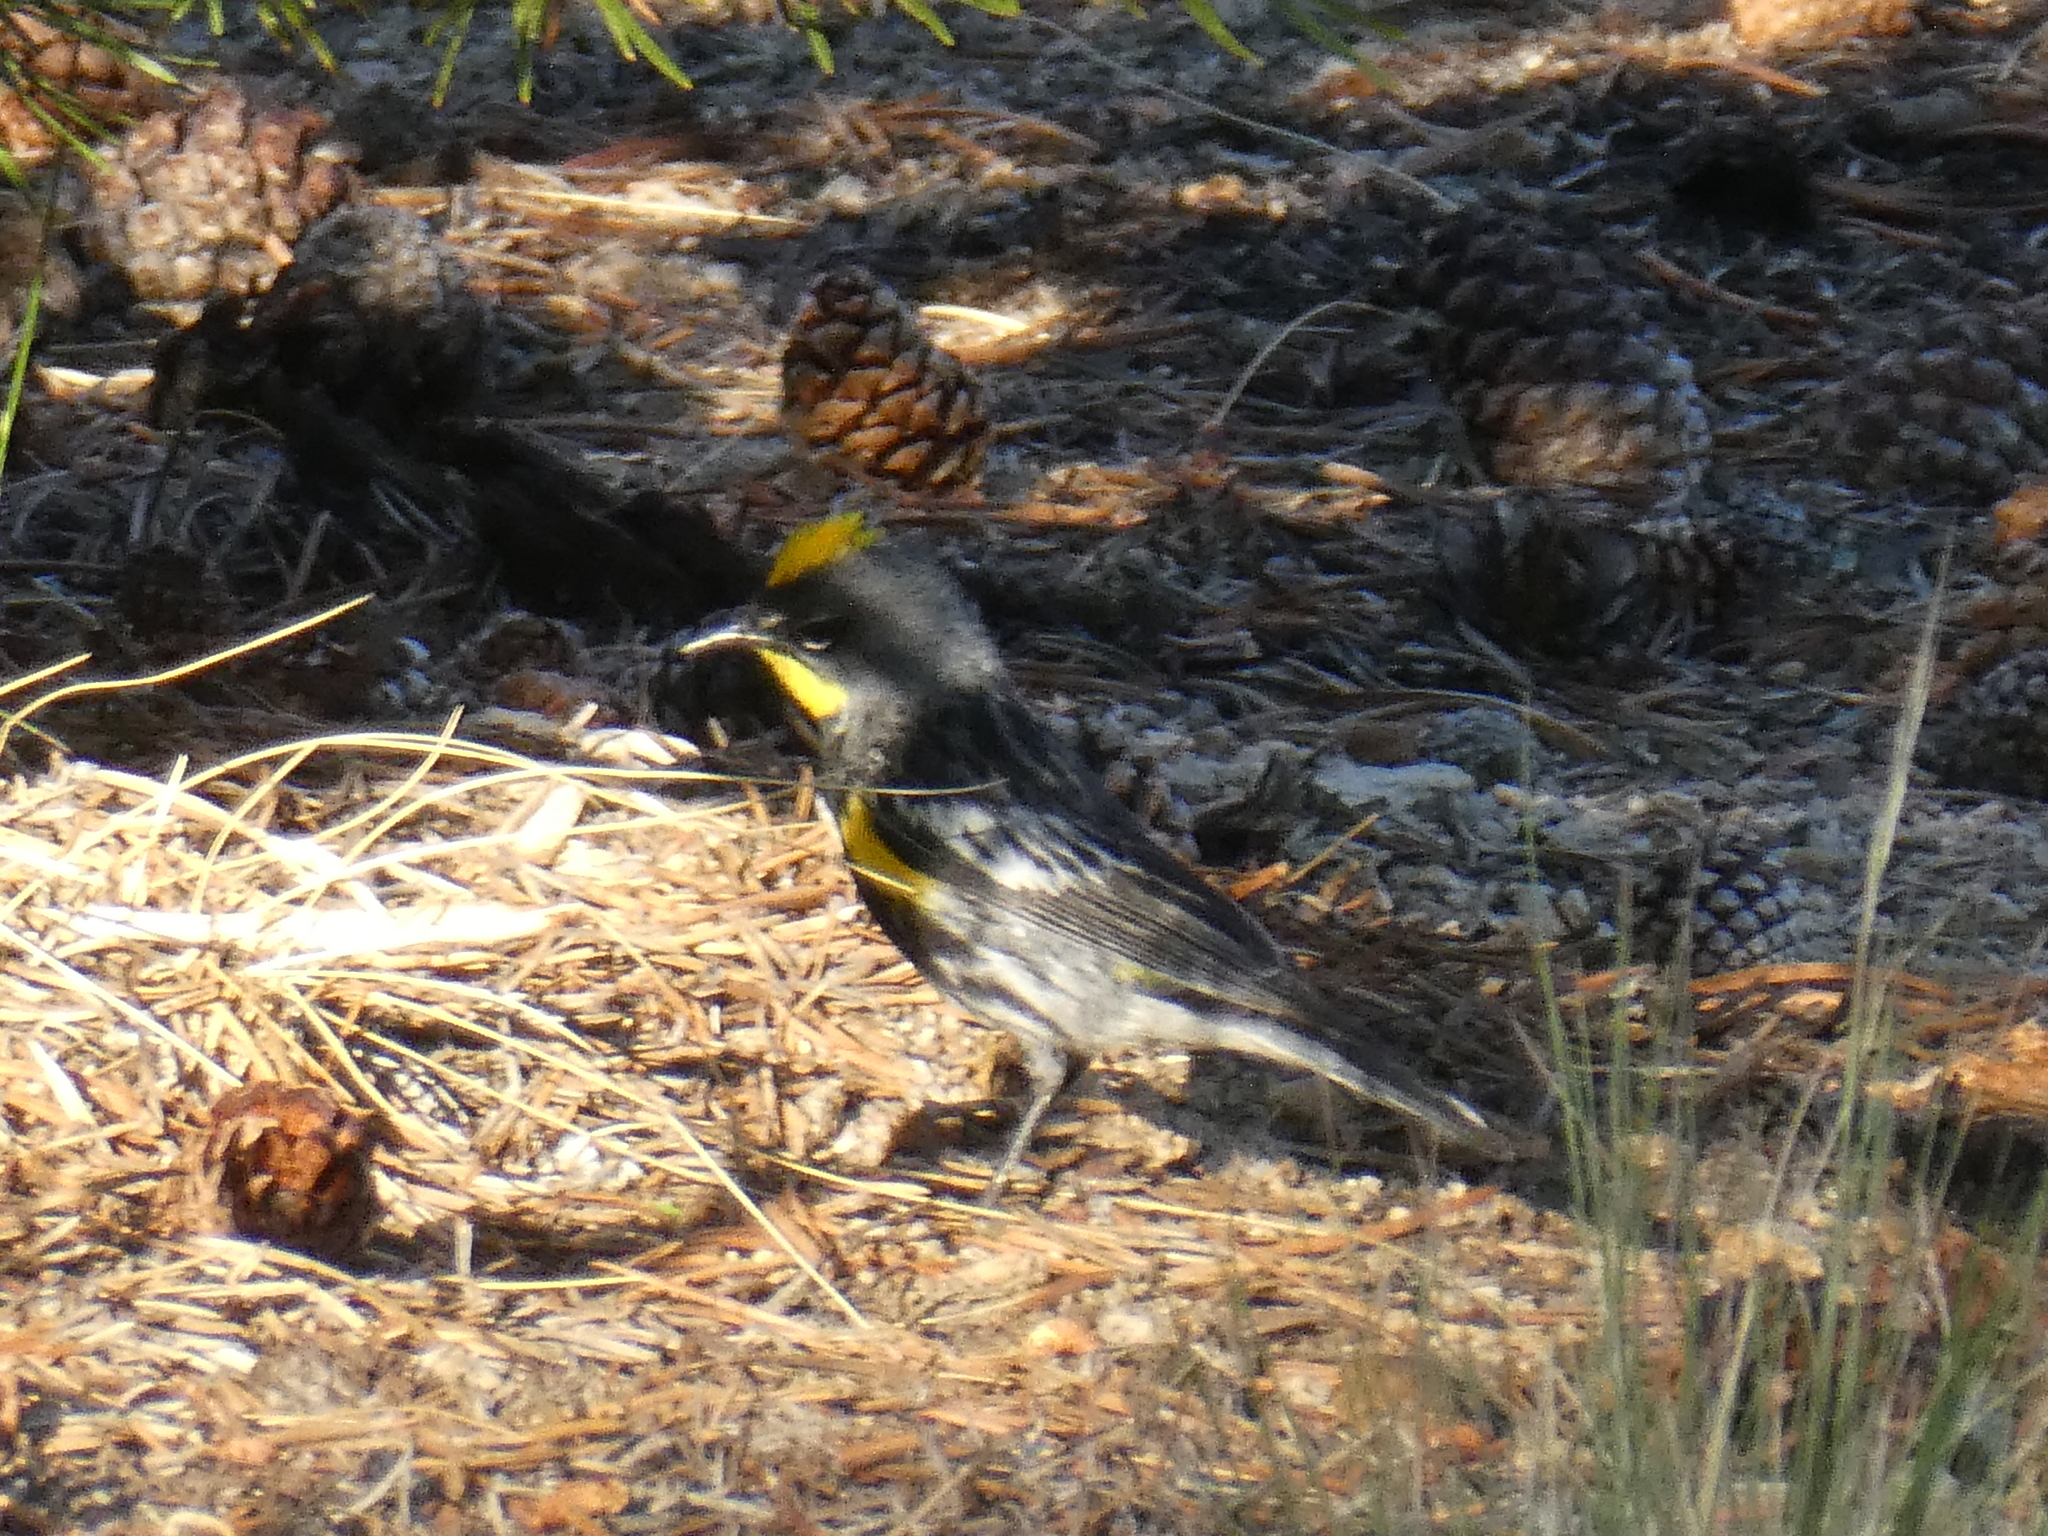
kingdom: Animalia
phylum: Chordata
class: Aves
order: Passeriformes
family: Parulidae
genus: Setophaga
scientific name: Setophaga coronata
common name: Myrtle warbler
